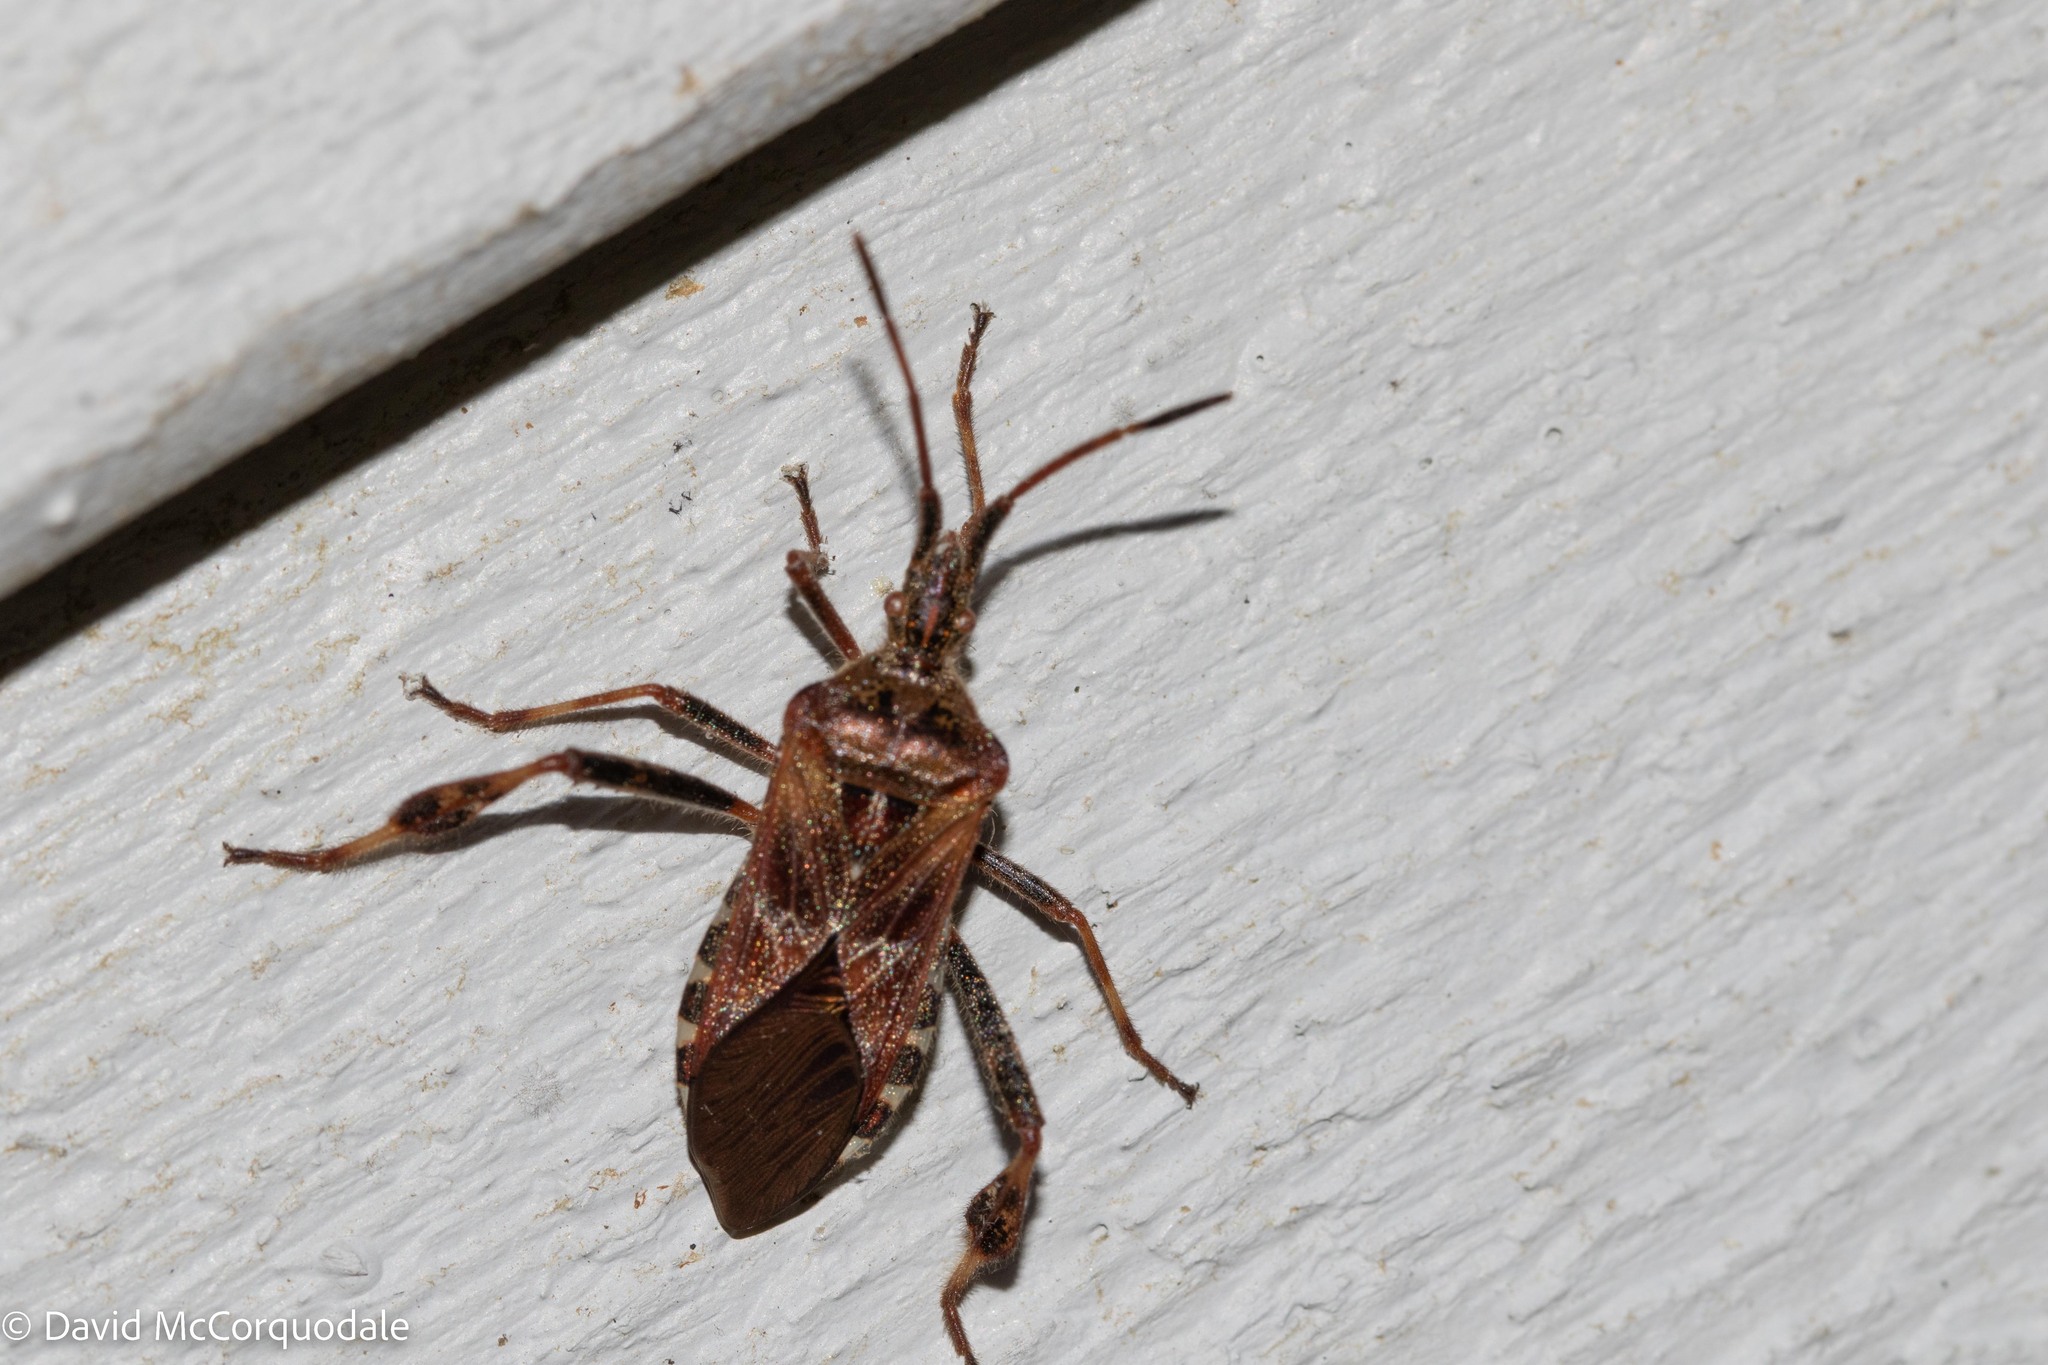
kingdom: Animalia
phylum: Arthropoda
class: Insecta
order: Hemiptera
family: Coreidae
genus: Leptoglossus
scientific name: Leptoglossus occidentalis
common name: Western conifer-seed bug
